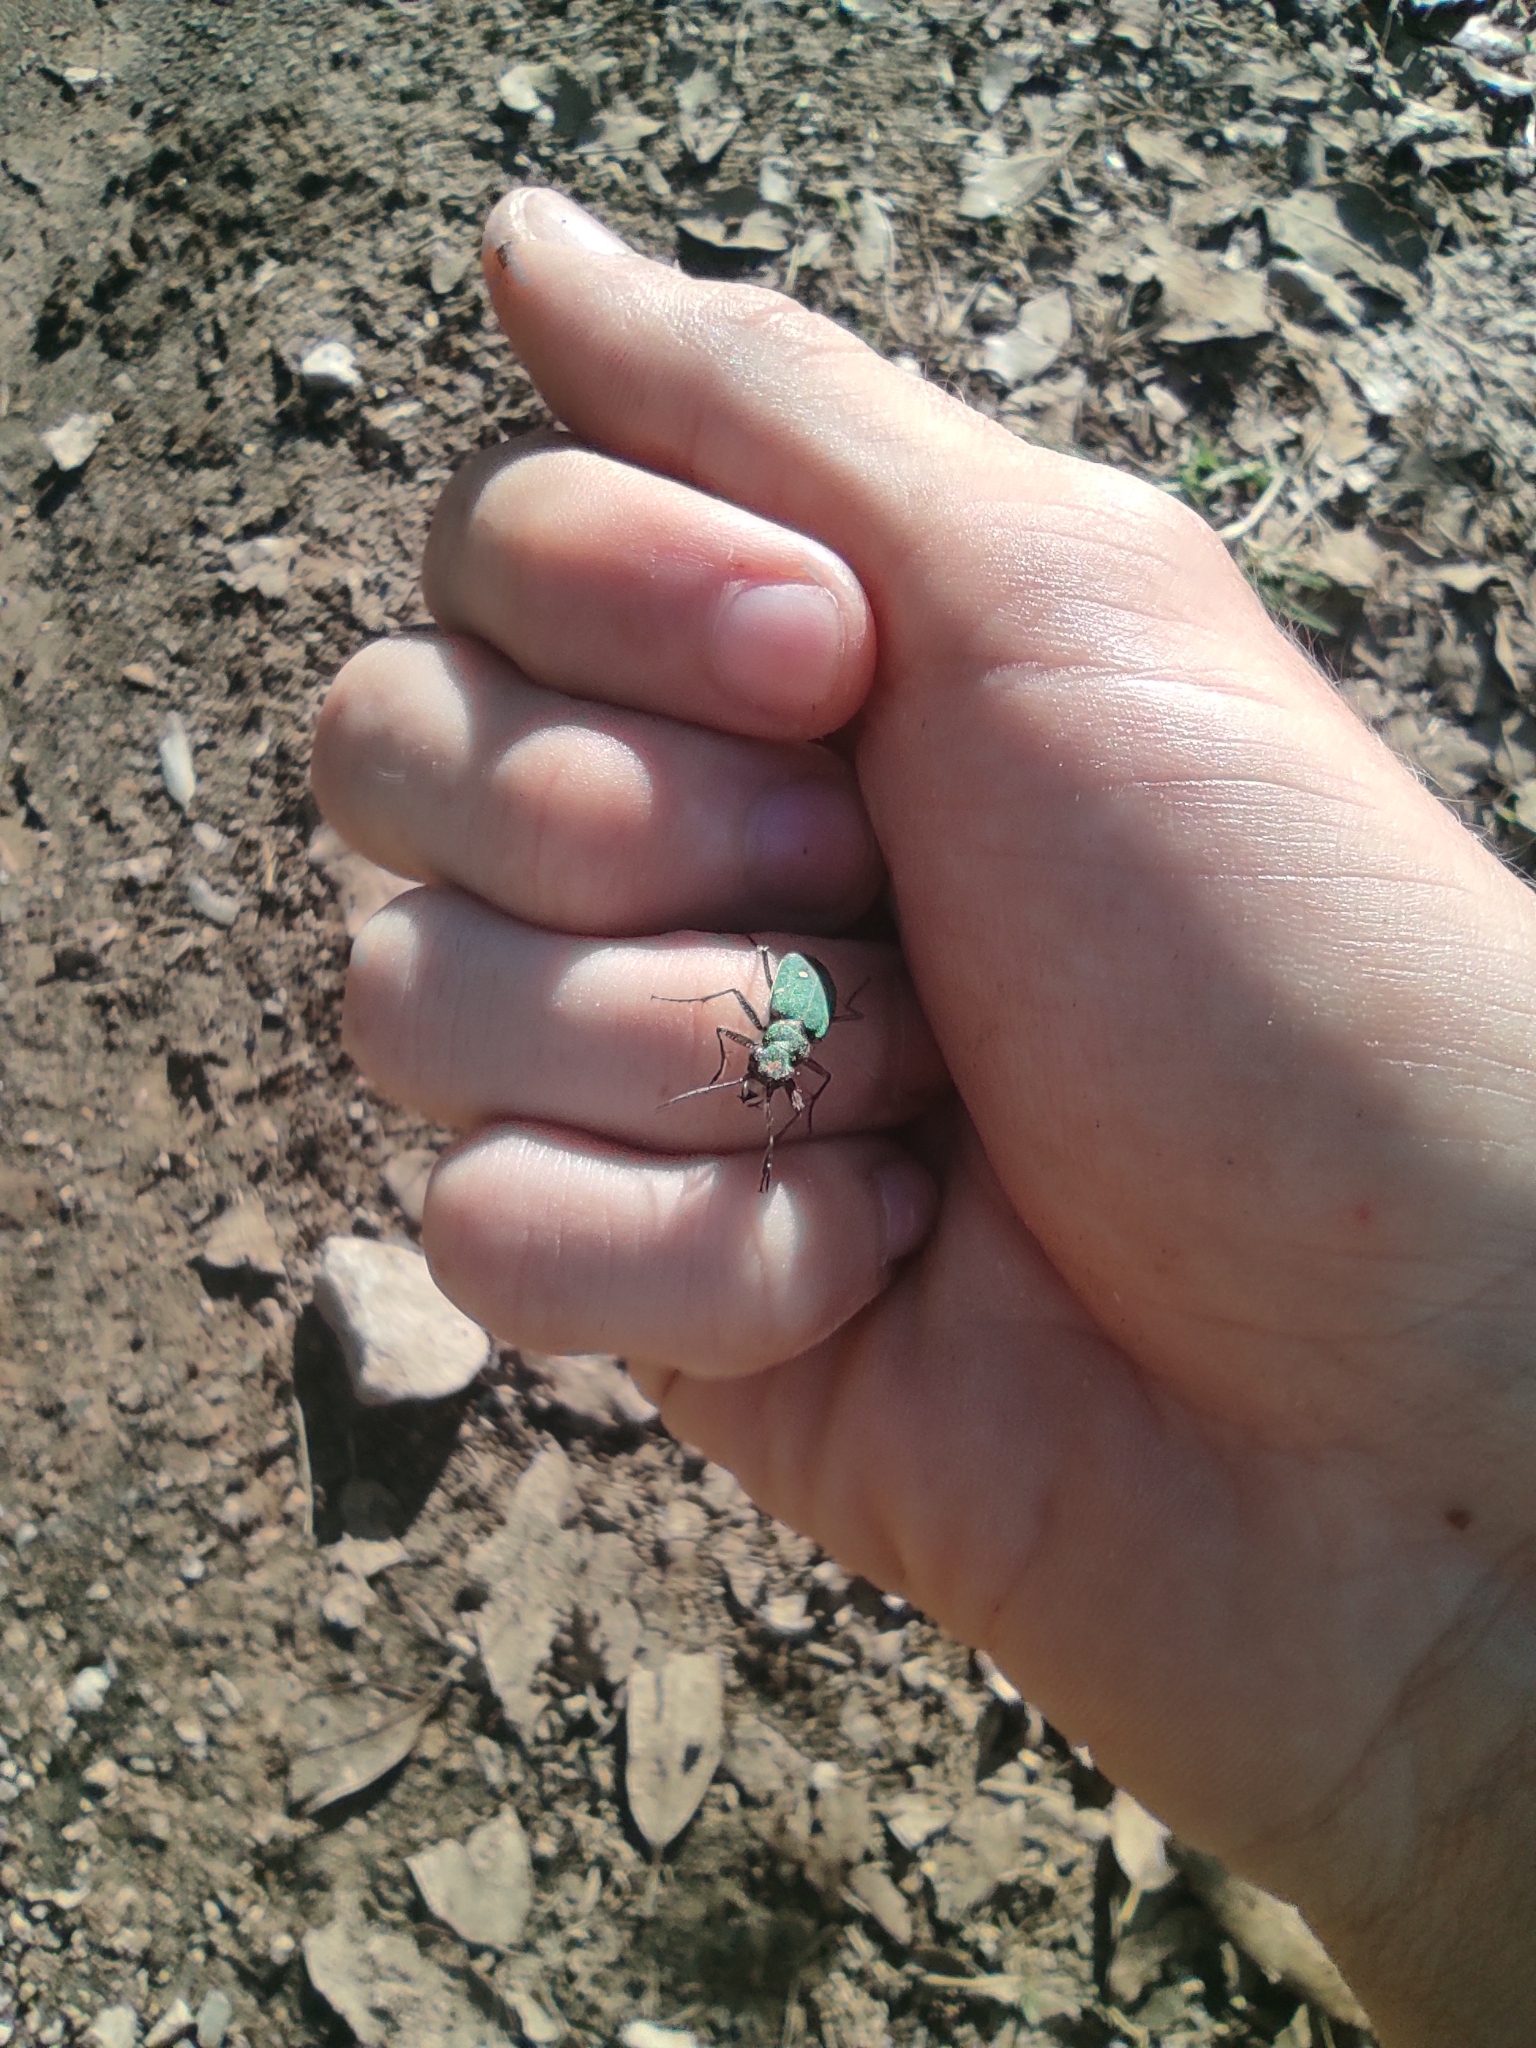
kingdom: Animalia
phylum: Arthropoda
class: Insecta
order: Coleoptera
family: Carabidae
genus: Cicindela
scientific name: Cicindela campestris
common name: Common tiger beetle
